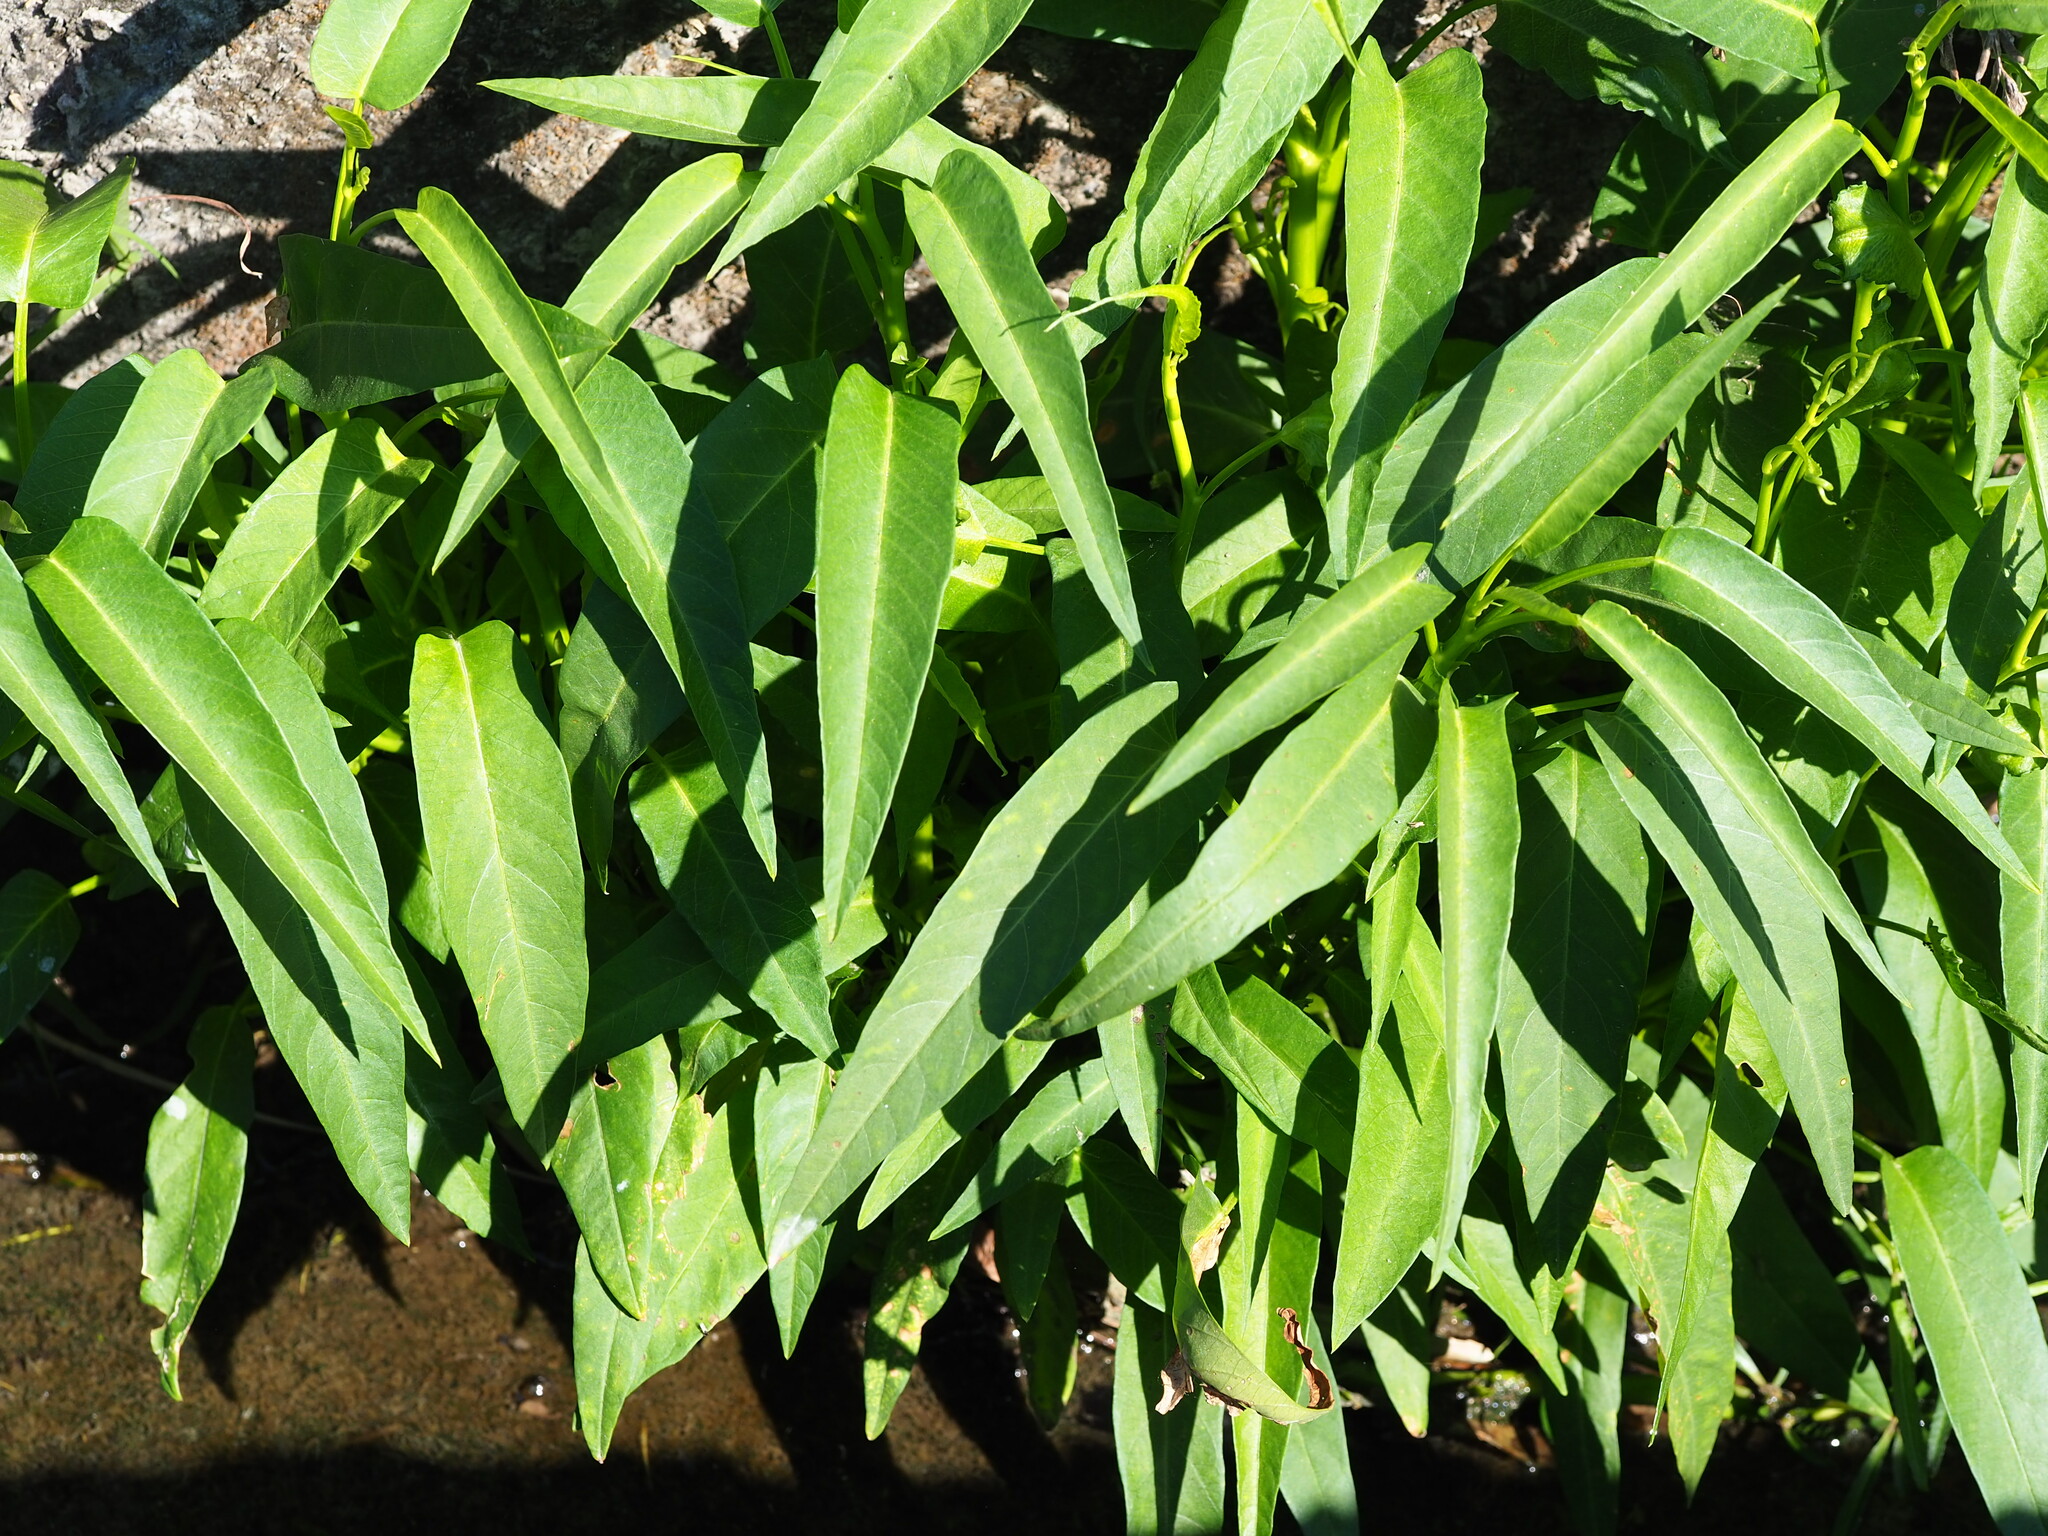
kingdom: Plantae
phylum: Tracheophyta
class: Magnoliopsida
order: Solanales
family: Convolvulaceae
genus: Ipomoea
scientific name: Ipomoea aquatica
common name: Swamp morning-glory
